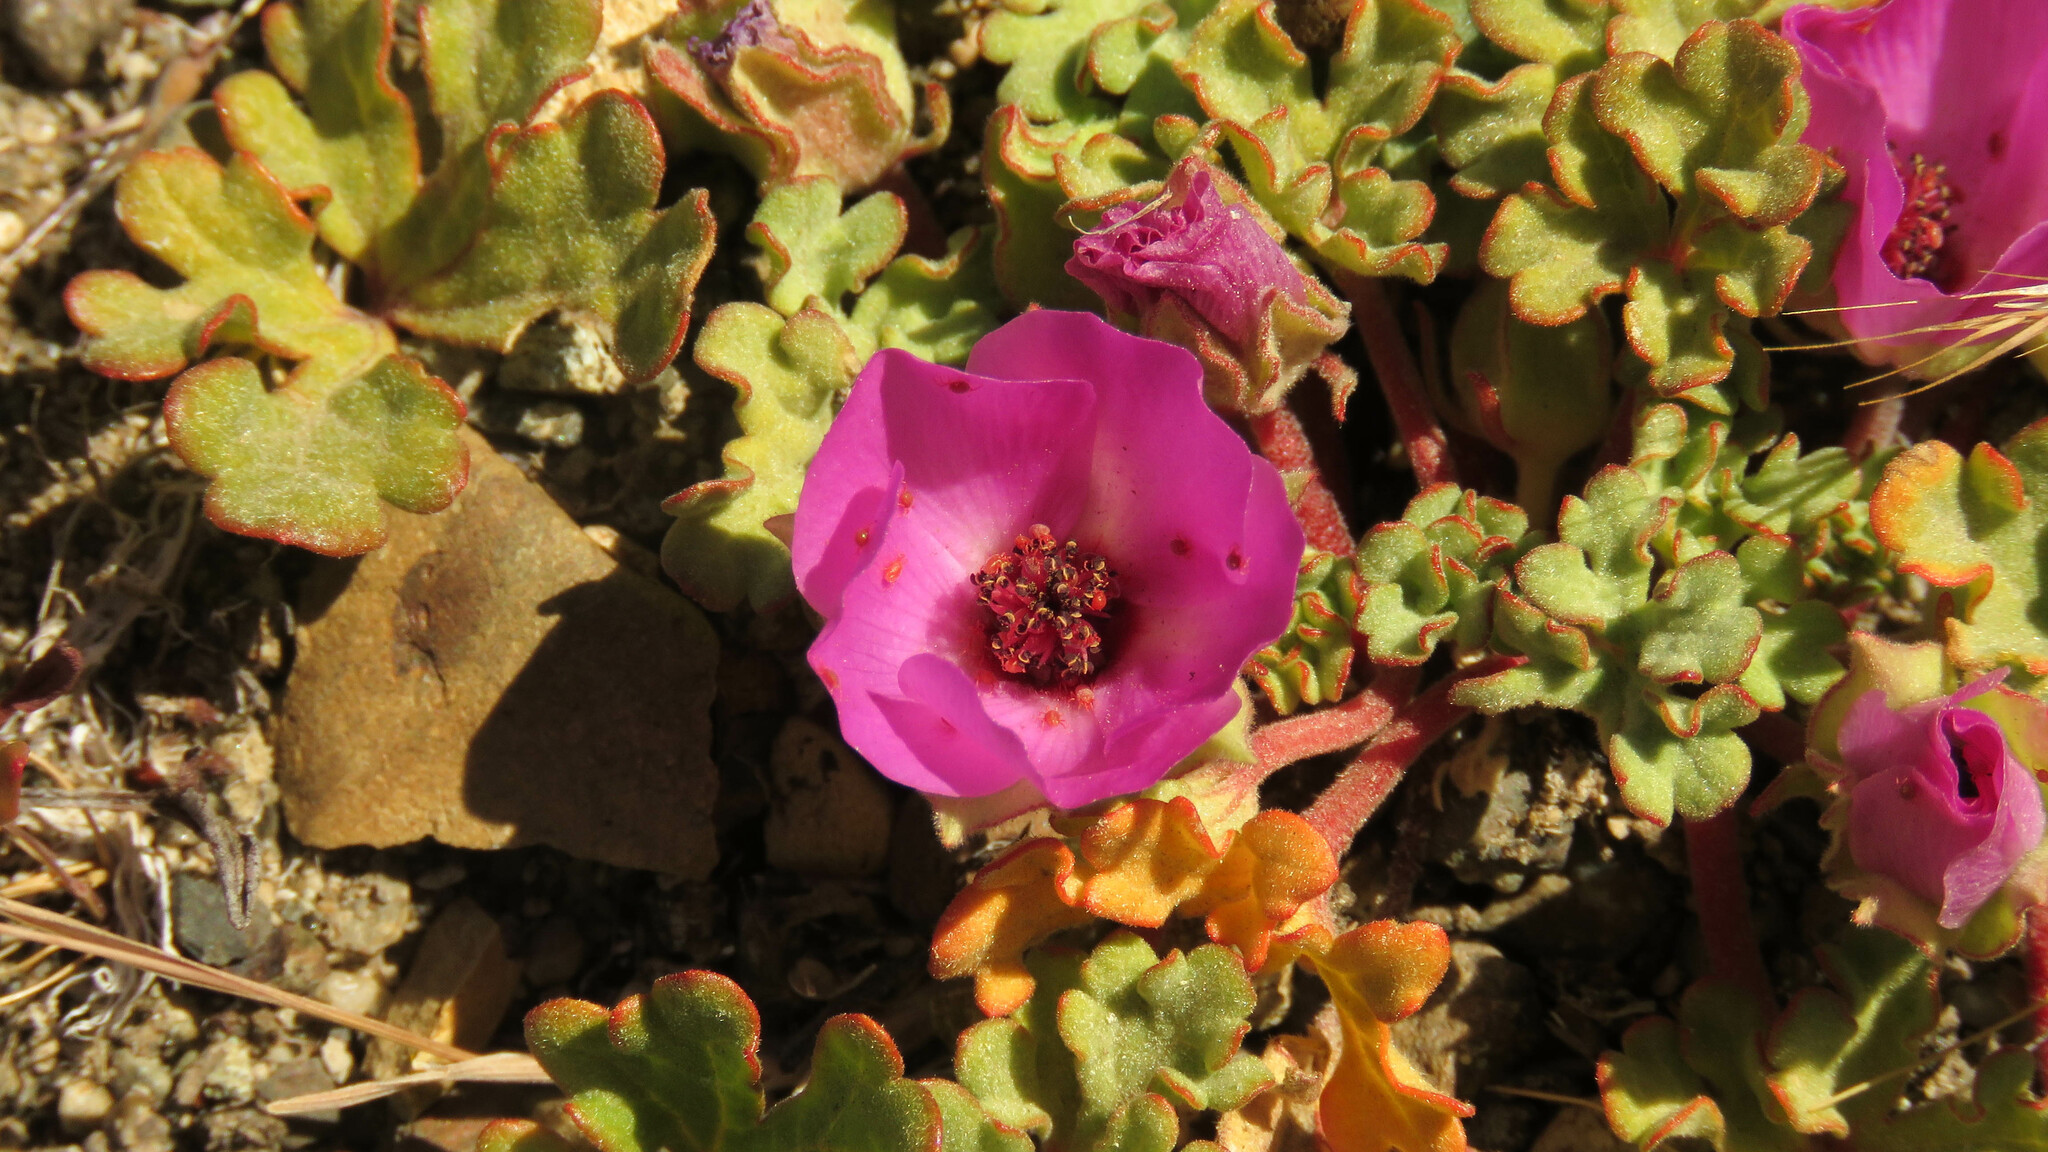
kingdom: Plantae
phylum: Tracheophyta
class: Magnoliopsida
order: Malvales
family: Malvaceae
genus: Tarasa
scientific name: Tarasa humilis
